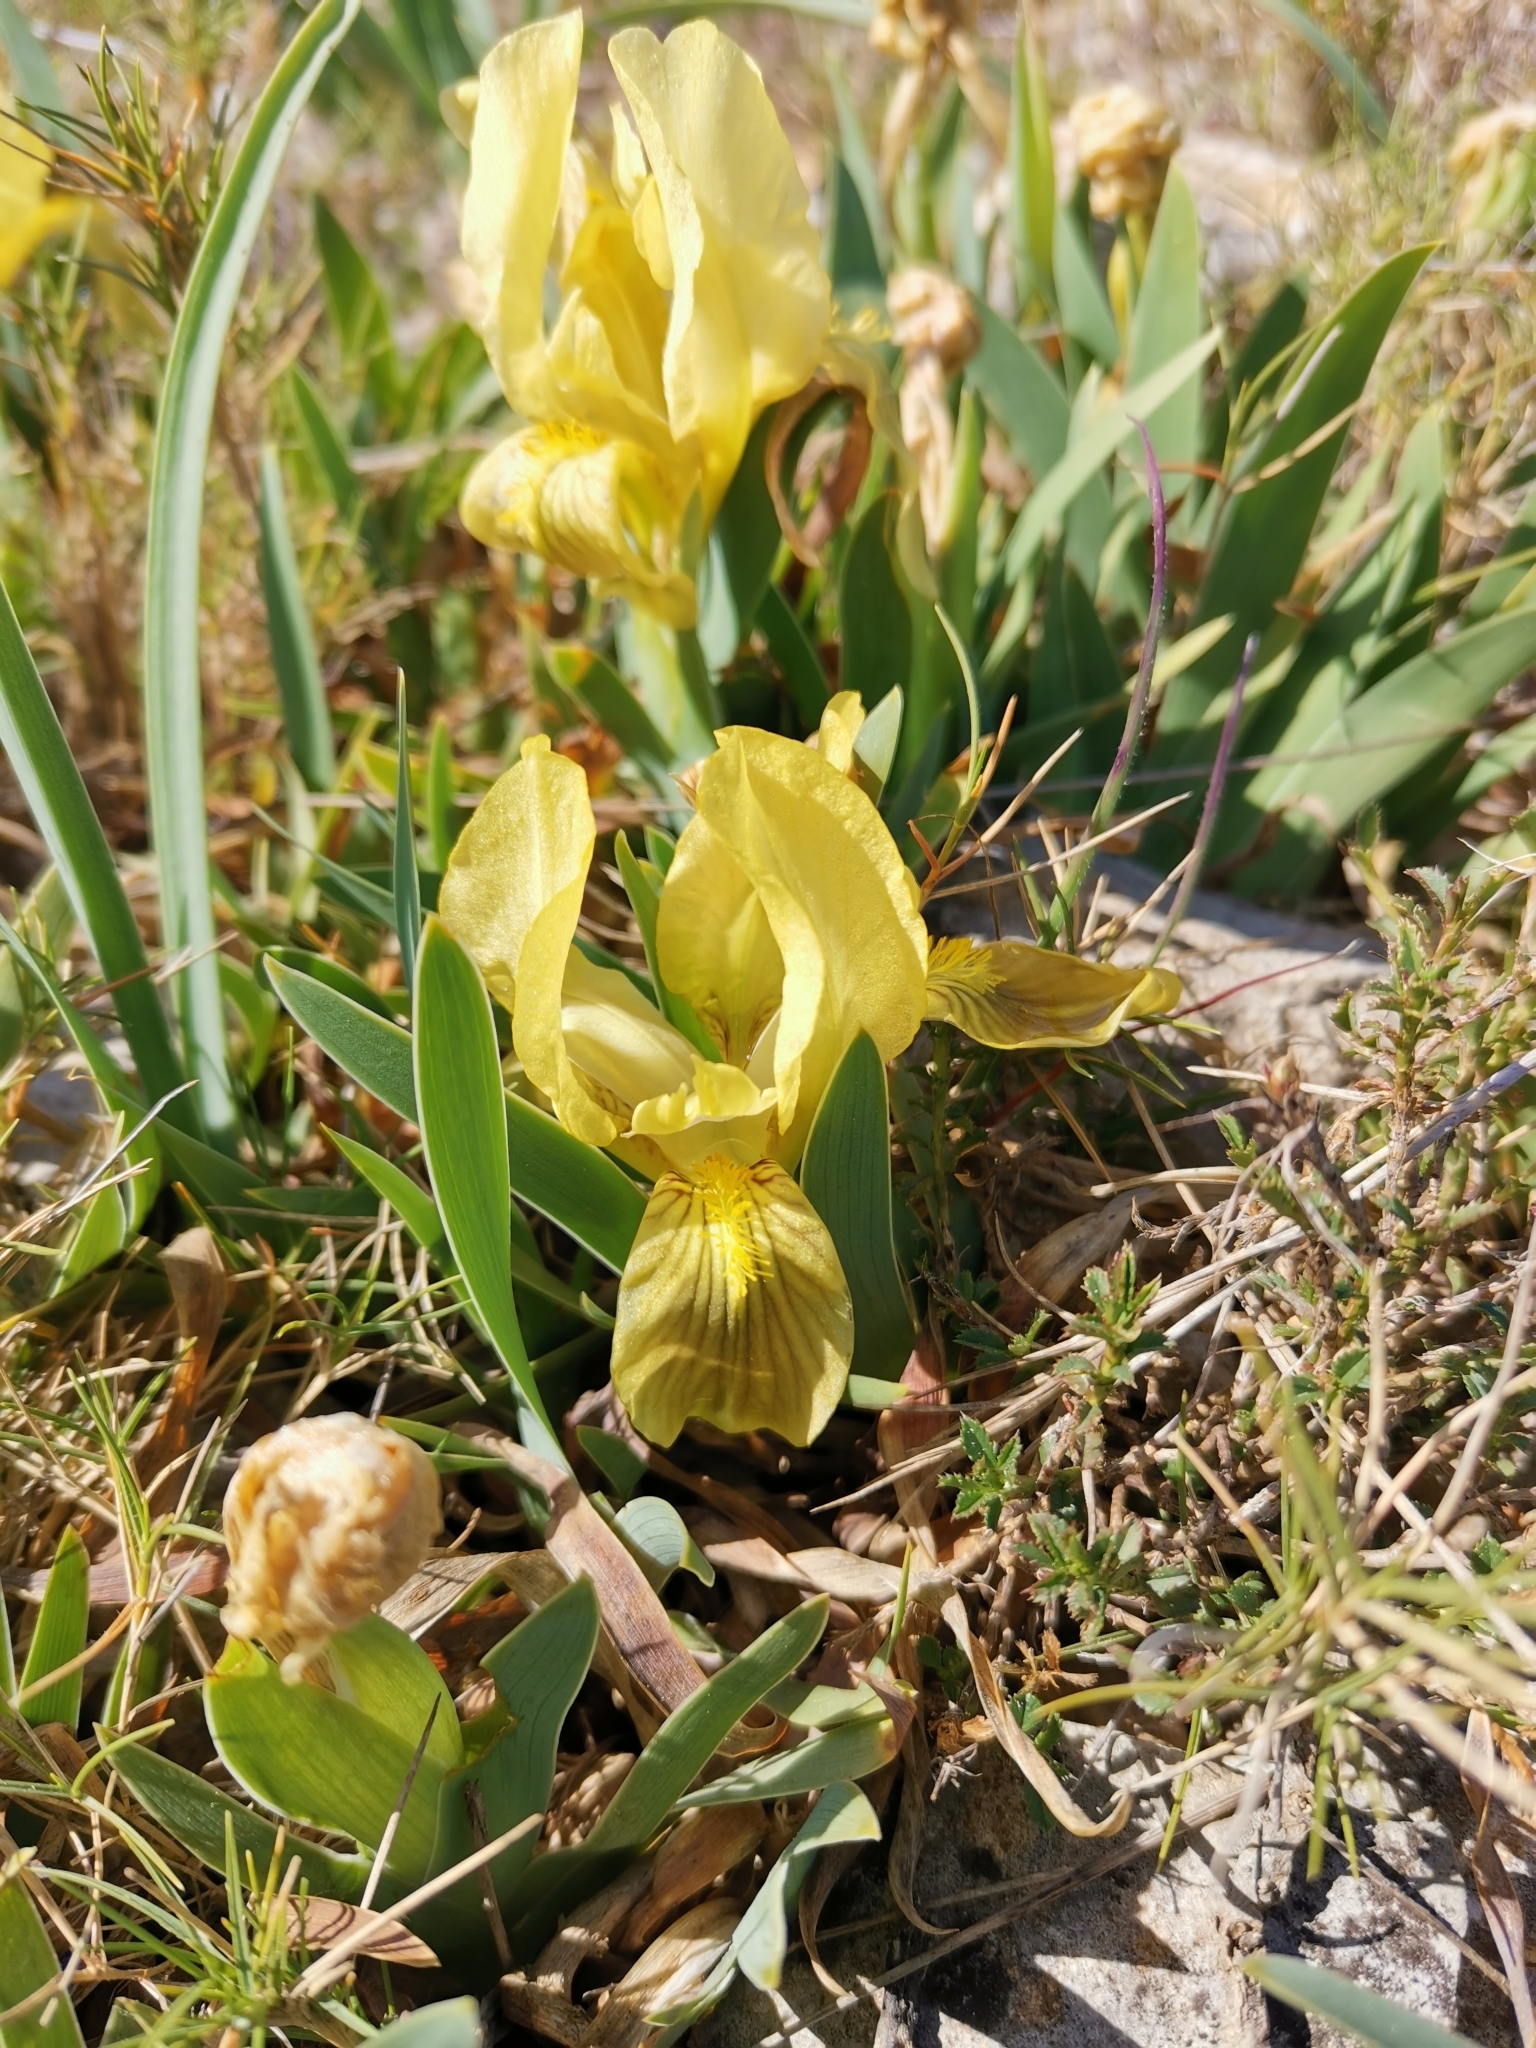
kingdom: Plantae
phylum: Tracheophyta
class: Liliopsida
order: Asparagales
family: Iridaceae
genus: Iris
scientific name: Iris lutescens
